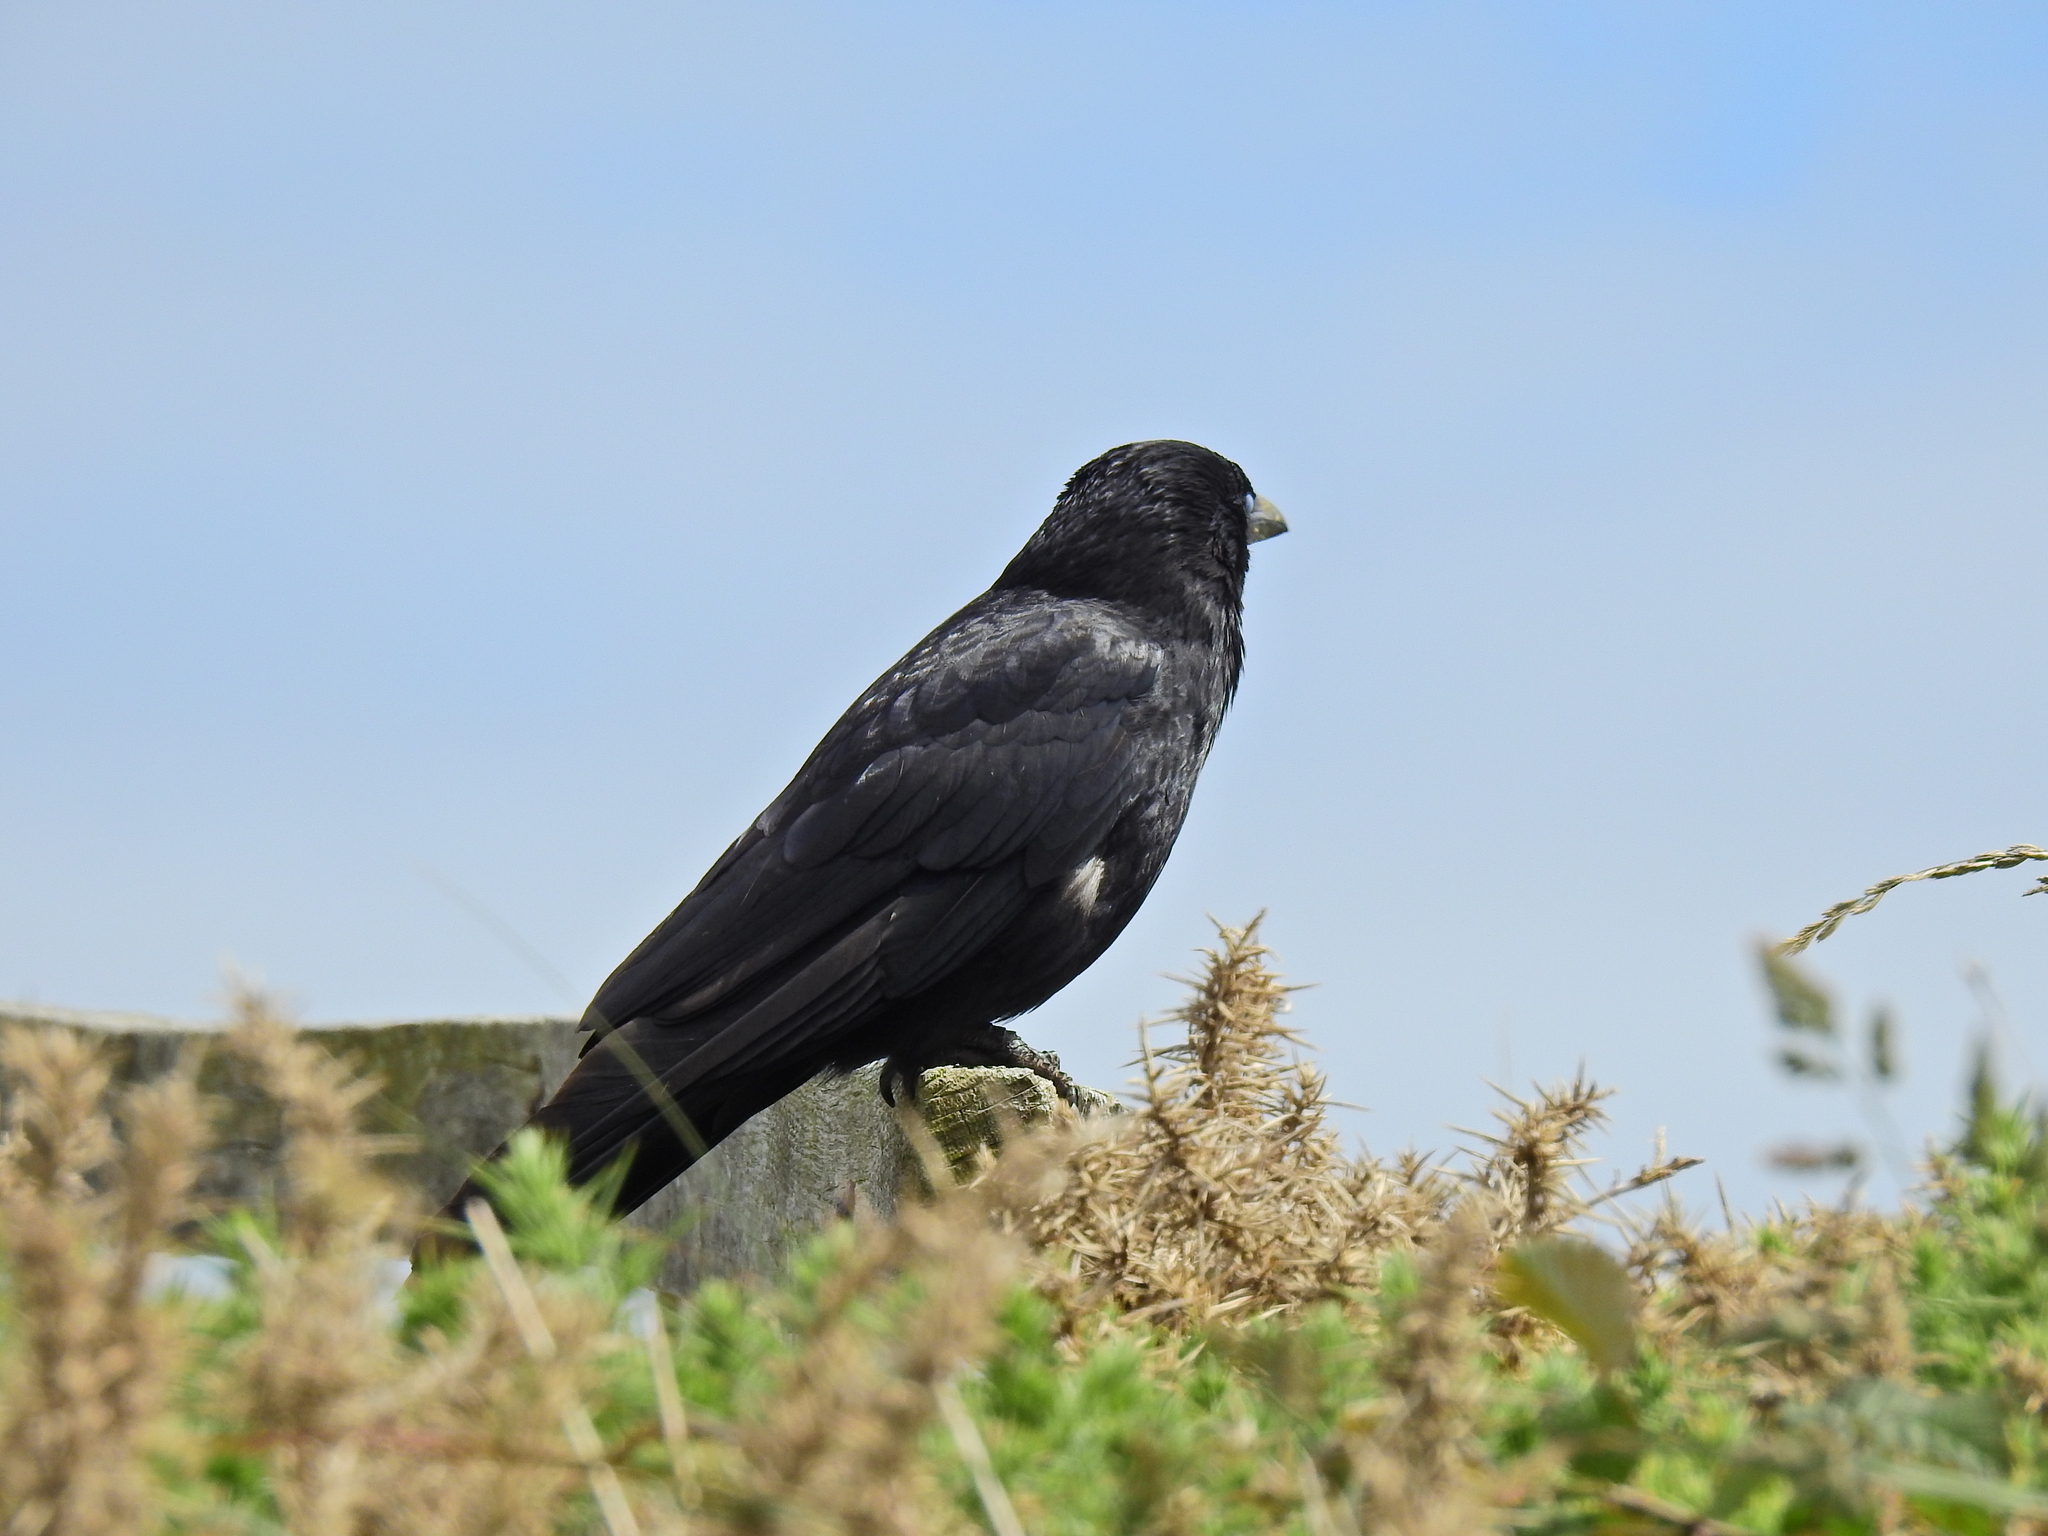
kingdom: Animalia
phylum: Chordata
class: Aves
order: Passeriformes
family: Corvidae
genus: Corvus
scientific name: Corvus corone
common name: Carrion crow
